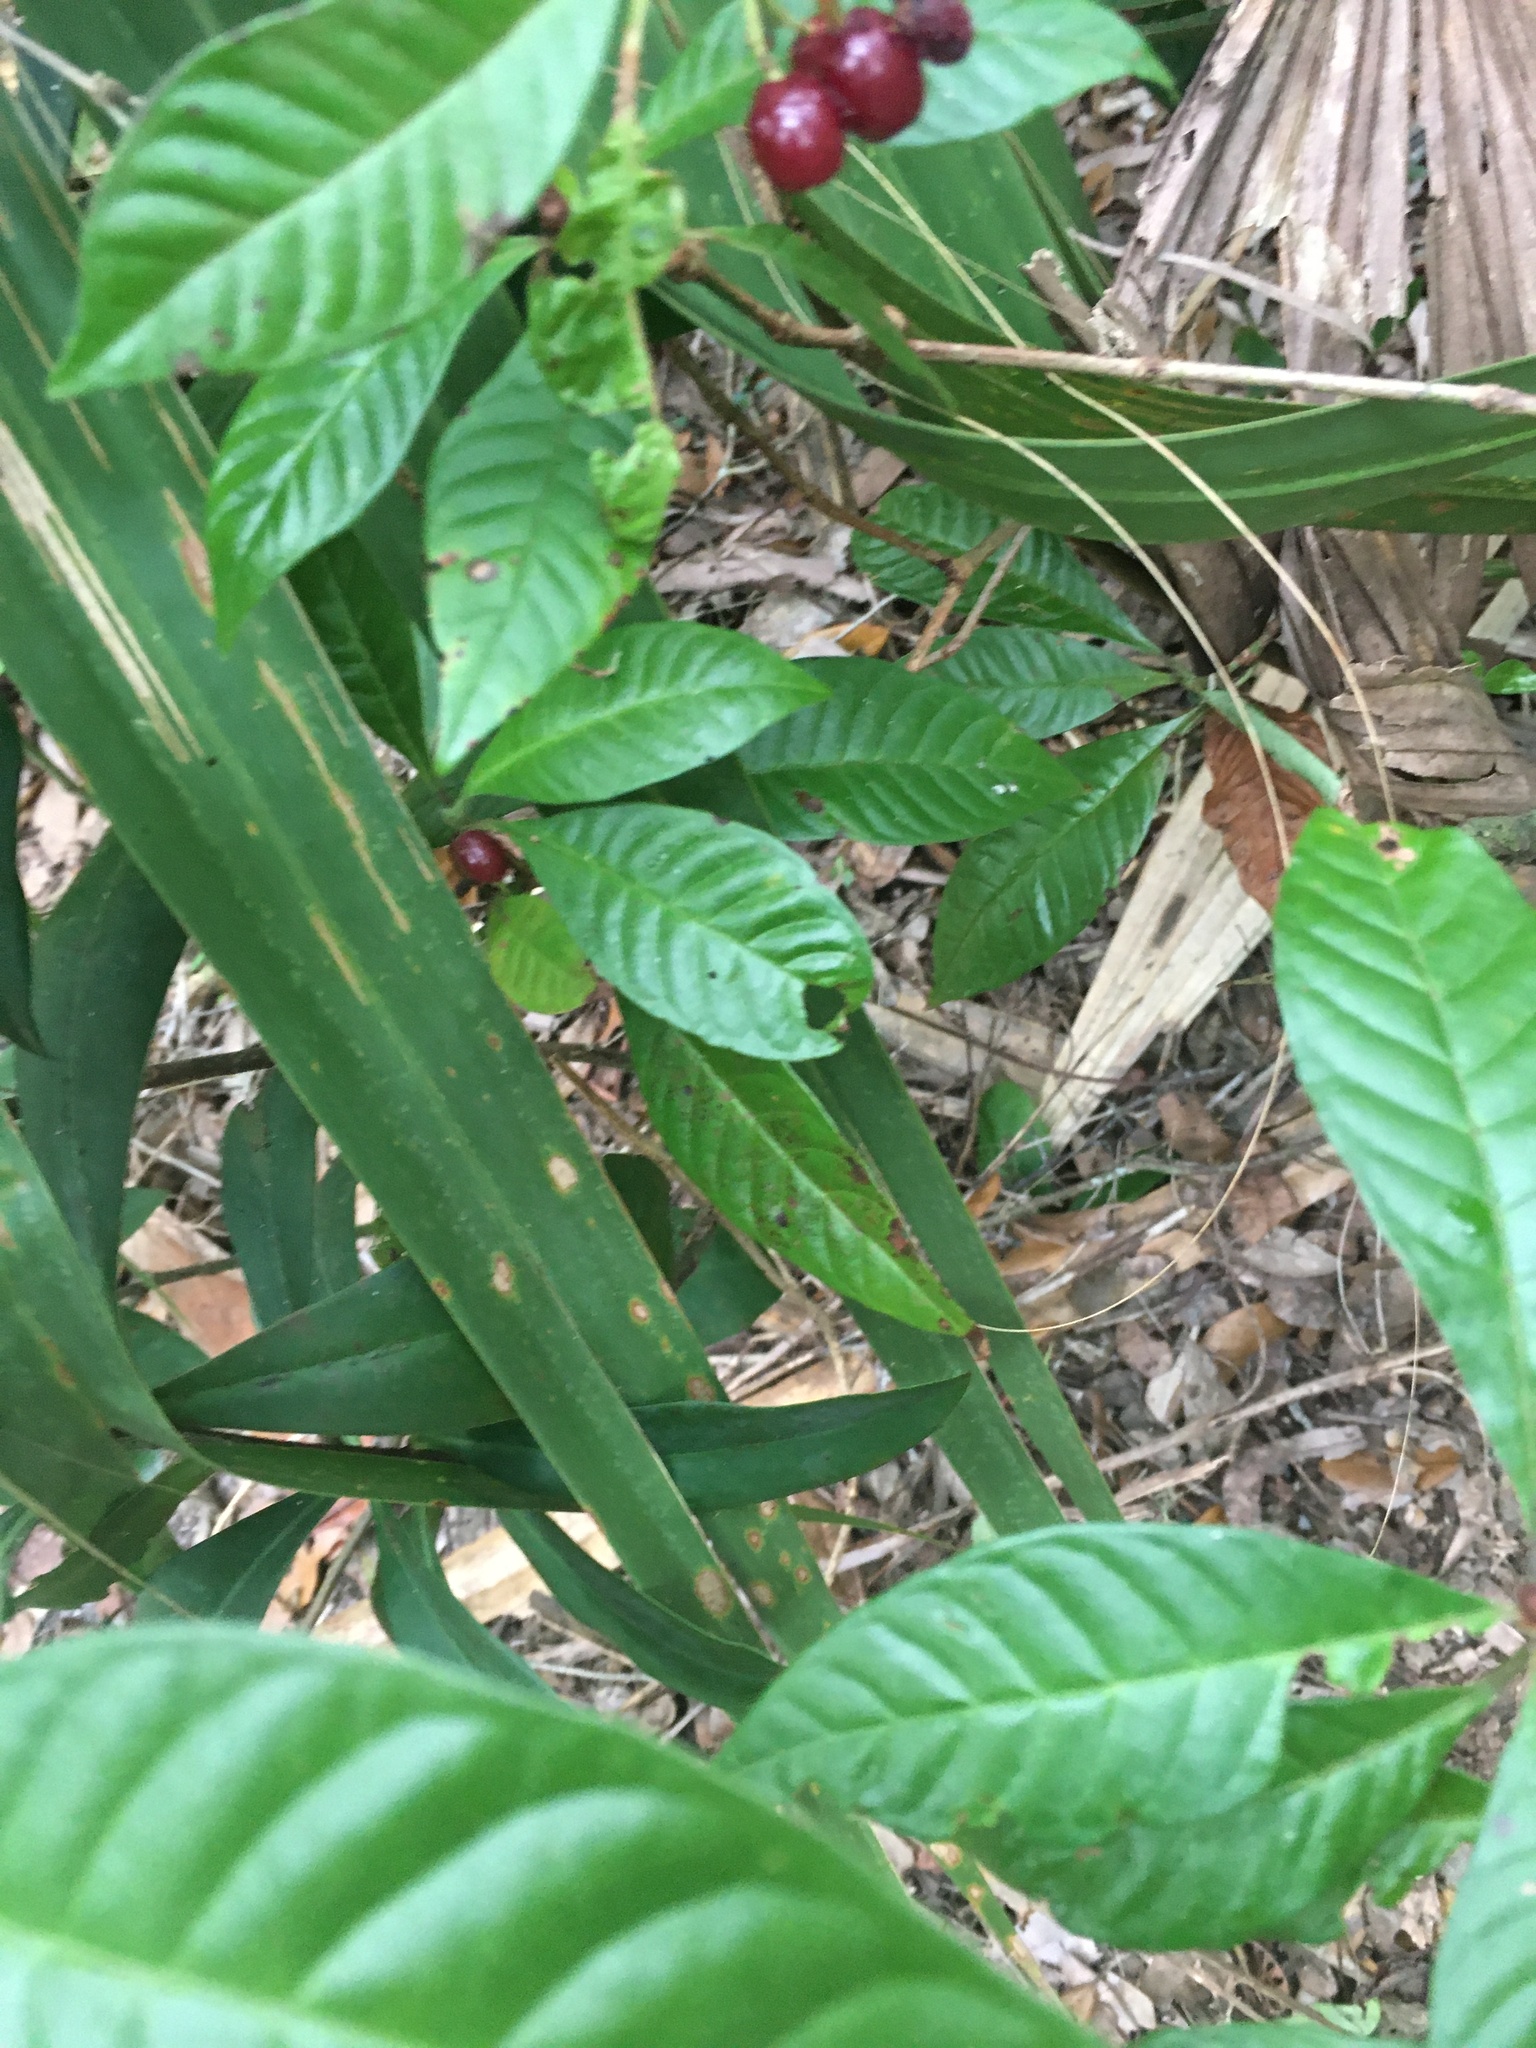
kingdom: Plantae
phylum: Tracheophyta
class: Magnoliopsida
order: Gentianales
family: Rubiaceae
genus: Psychotria
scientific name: Psychotria nervosa
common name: Bastard cankerberry
